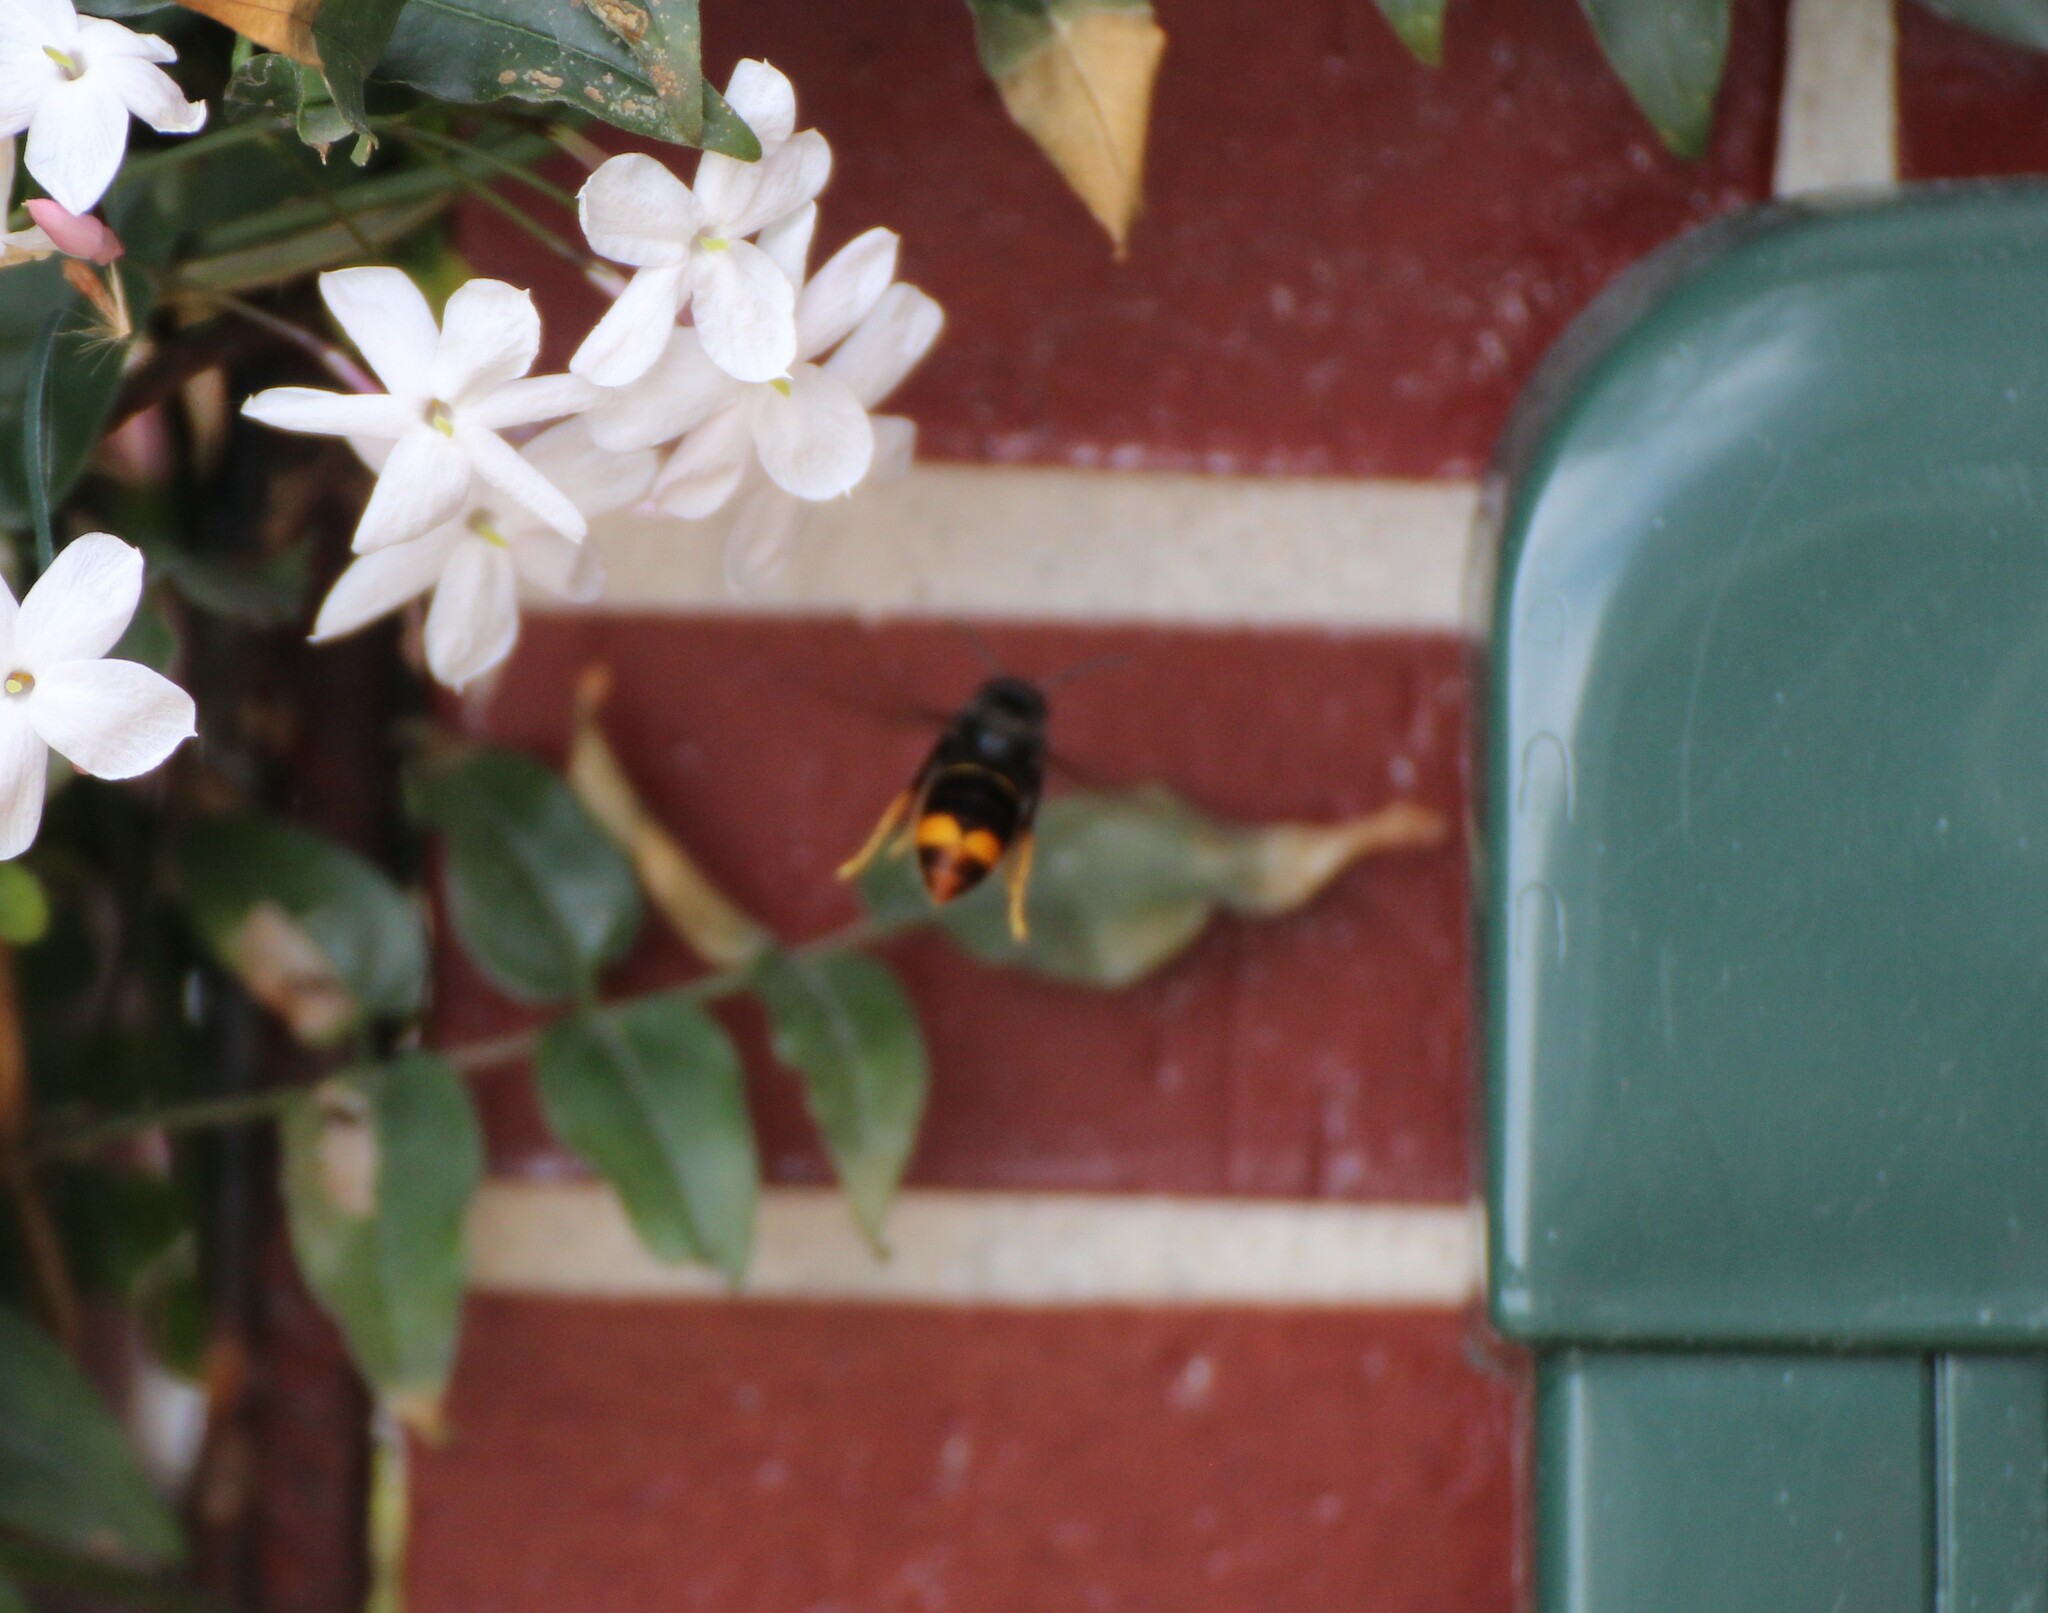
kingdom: Animalia
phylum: Arthropoda
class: Insecta
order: Hymenoptera
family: Vespidae
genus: Vespa
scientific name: Vespa velutina
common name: Asian hornet
